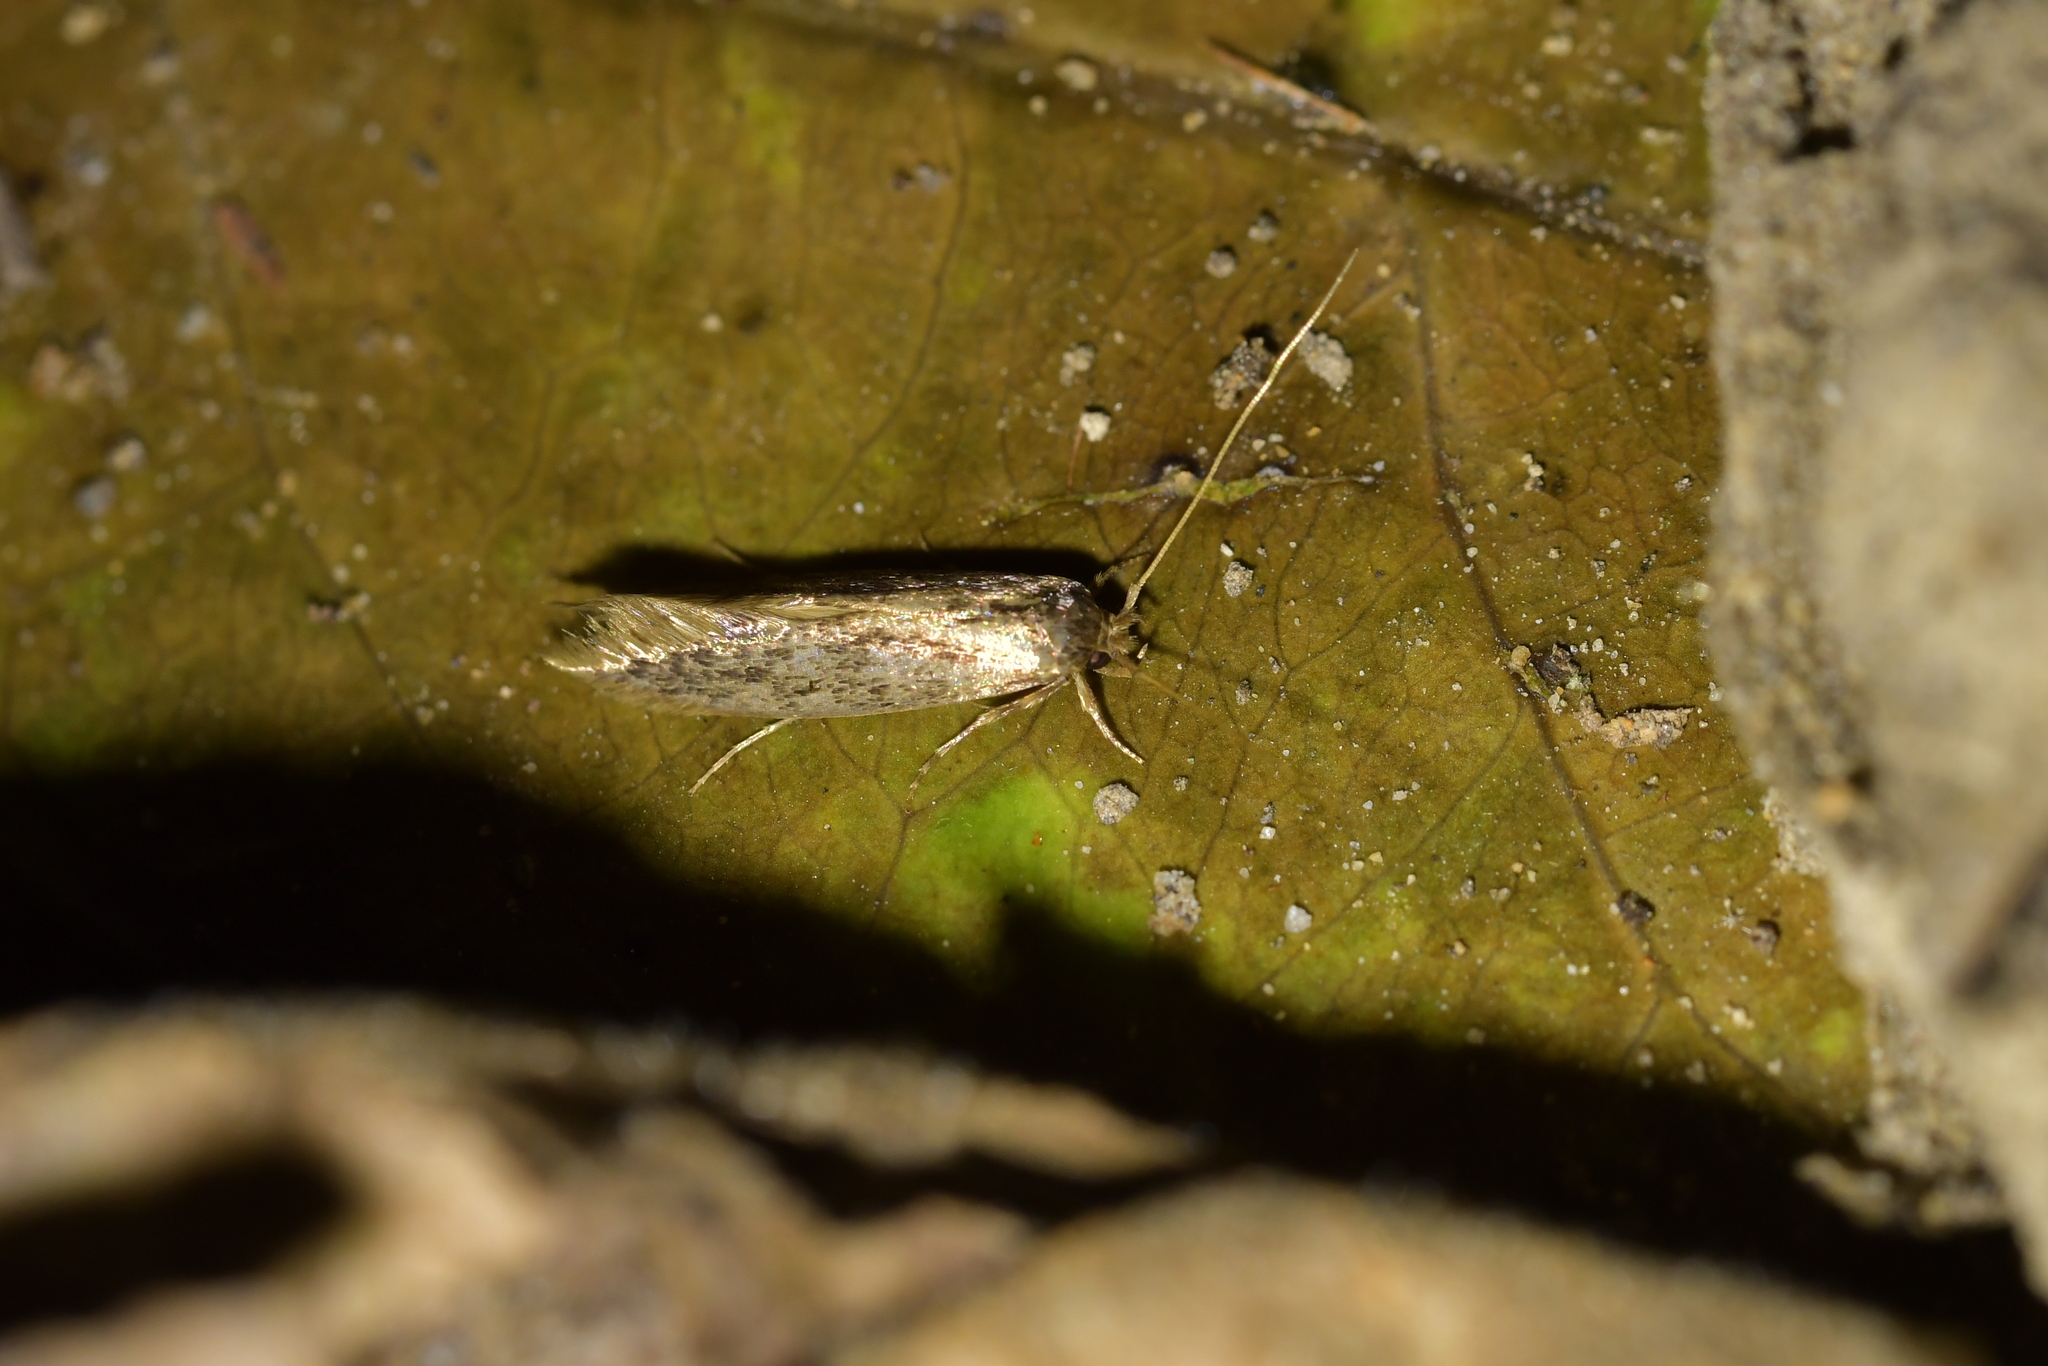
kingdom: Animalia
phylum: Arthropoda
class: Insecta
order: Lepidoptera
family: Tineidae
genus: Opogona
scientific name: Opogona omoscopa
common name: Moth
